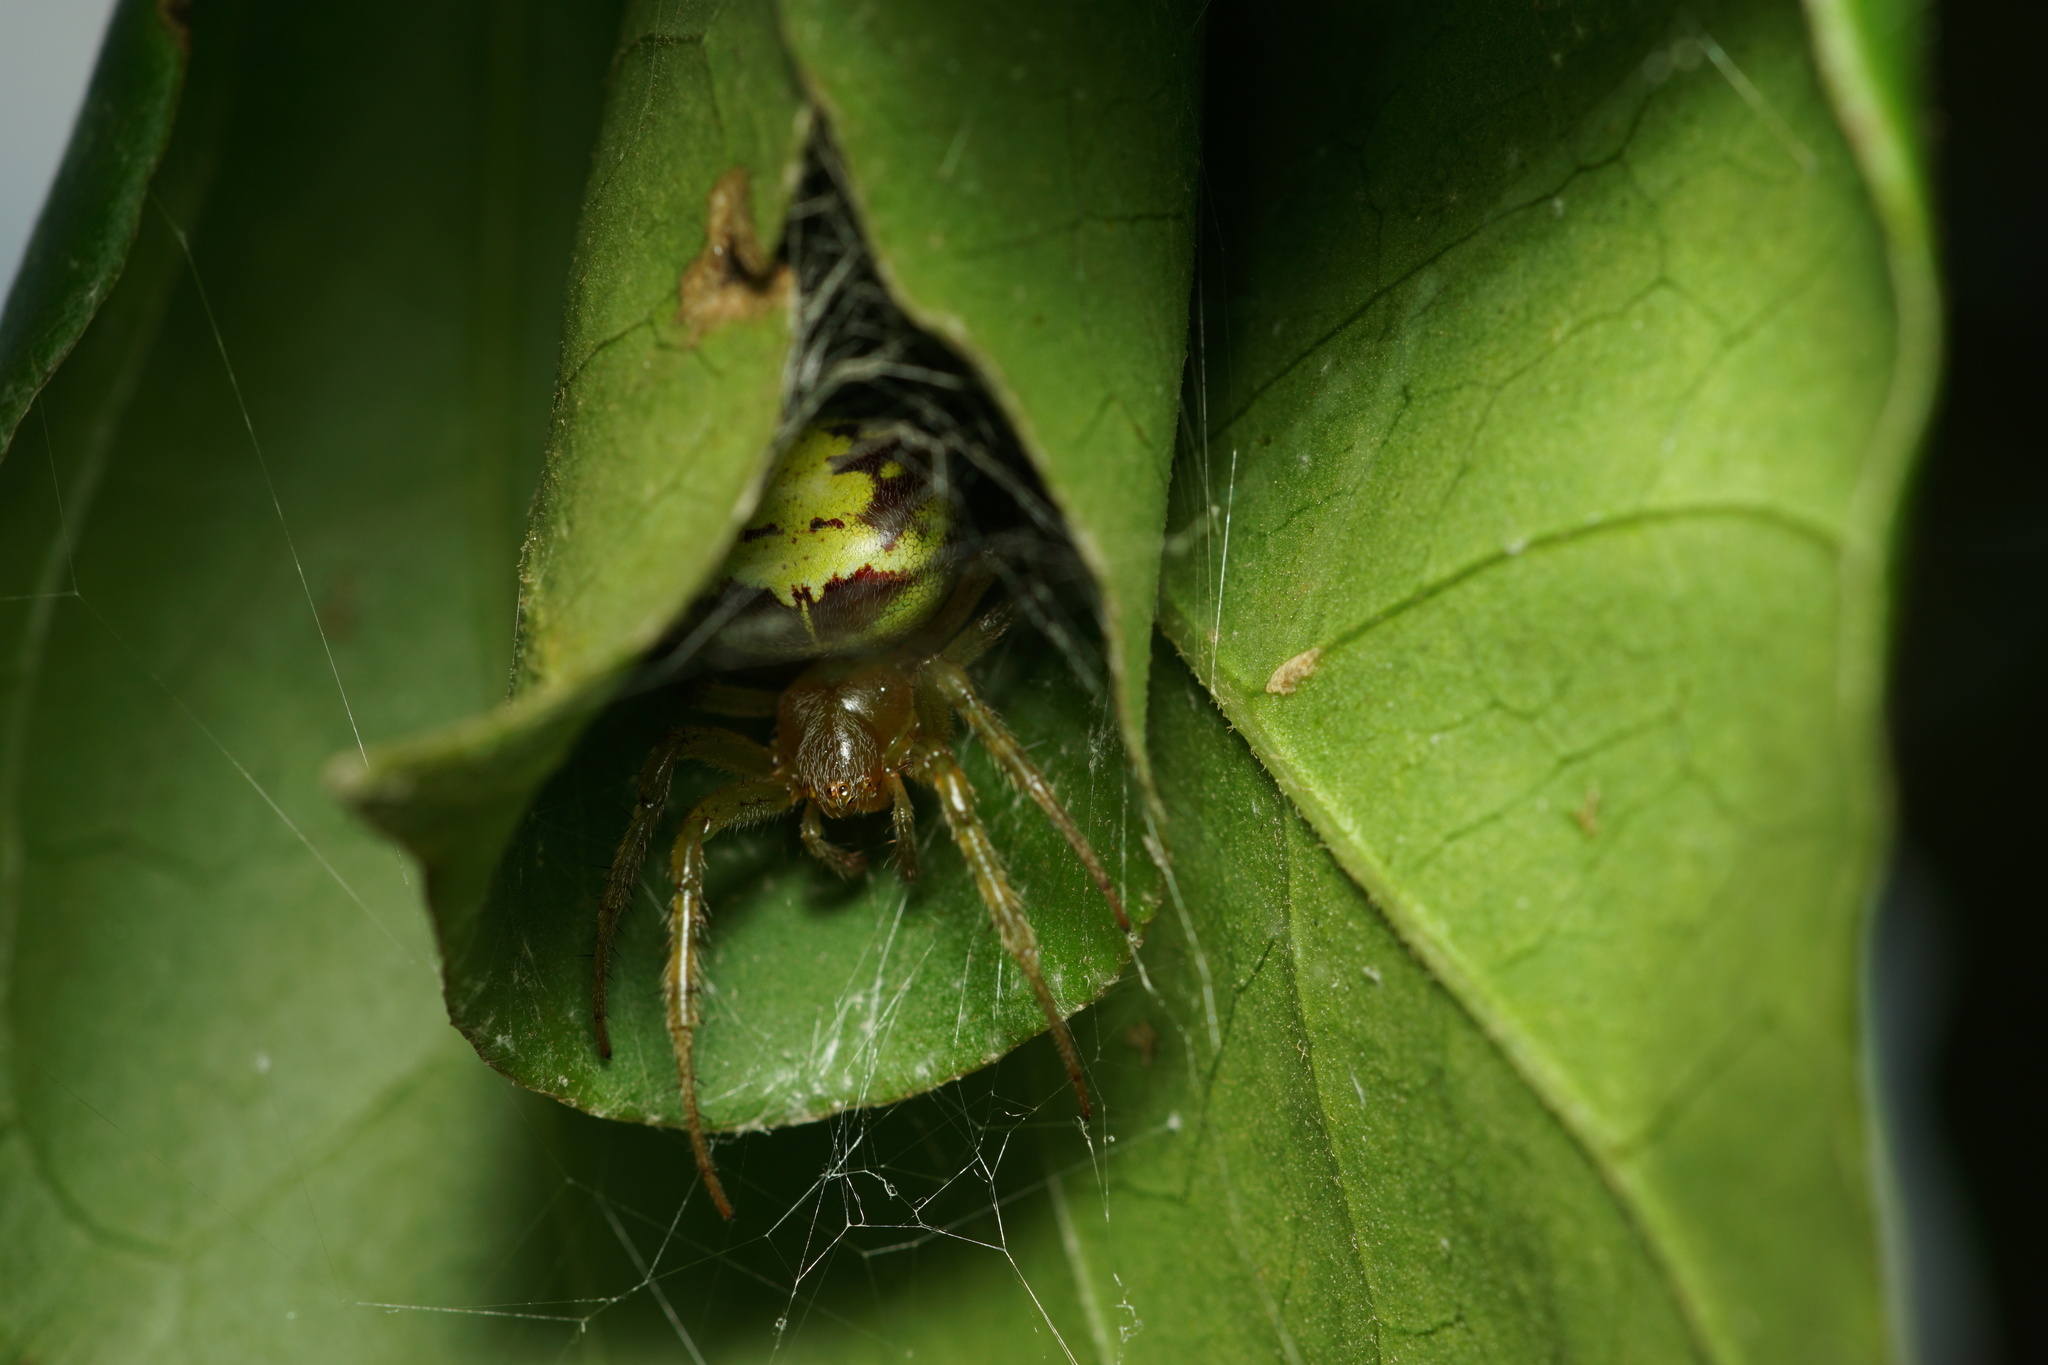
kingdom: Animalia
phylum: Arthropoda
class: Arachnida
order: Araneae
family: Araneidae
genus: Araneus
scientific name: Araneus unanimus
